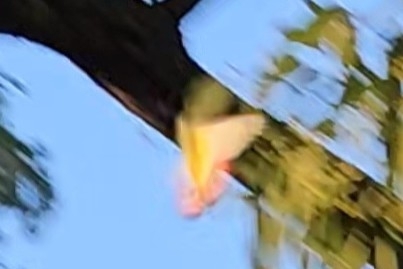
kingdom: Animalia
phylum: Arthropoda
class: Insecta
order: Lepidoptera
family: Pieridae
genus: Delias
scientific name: Delias argenthona
